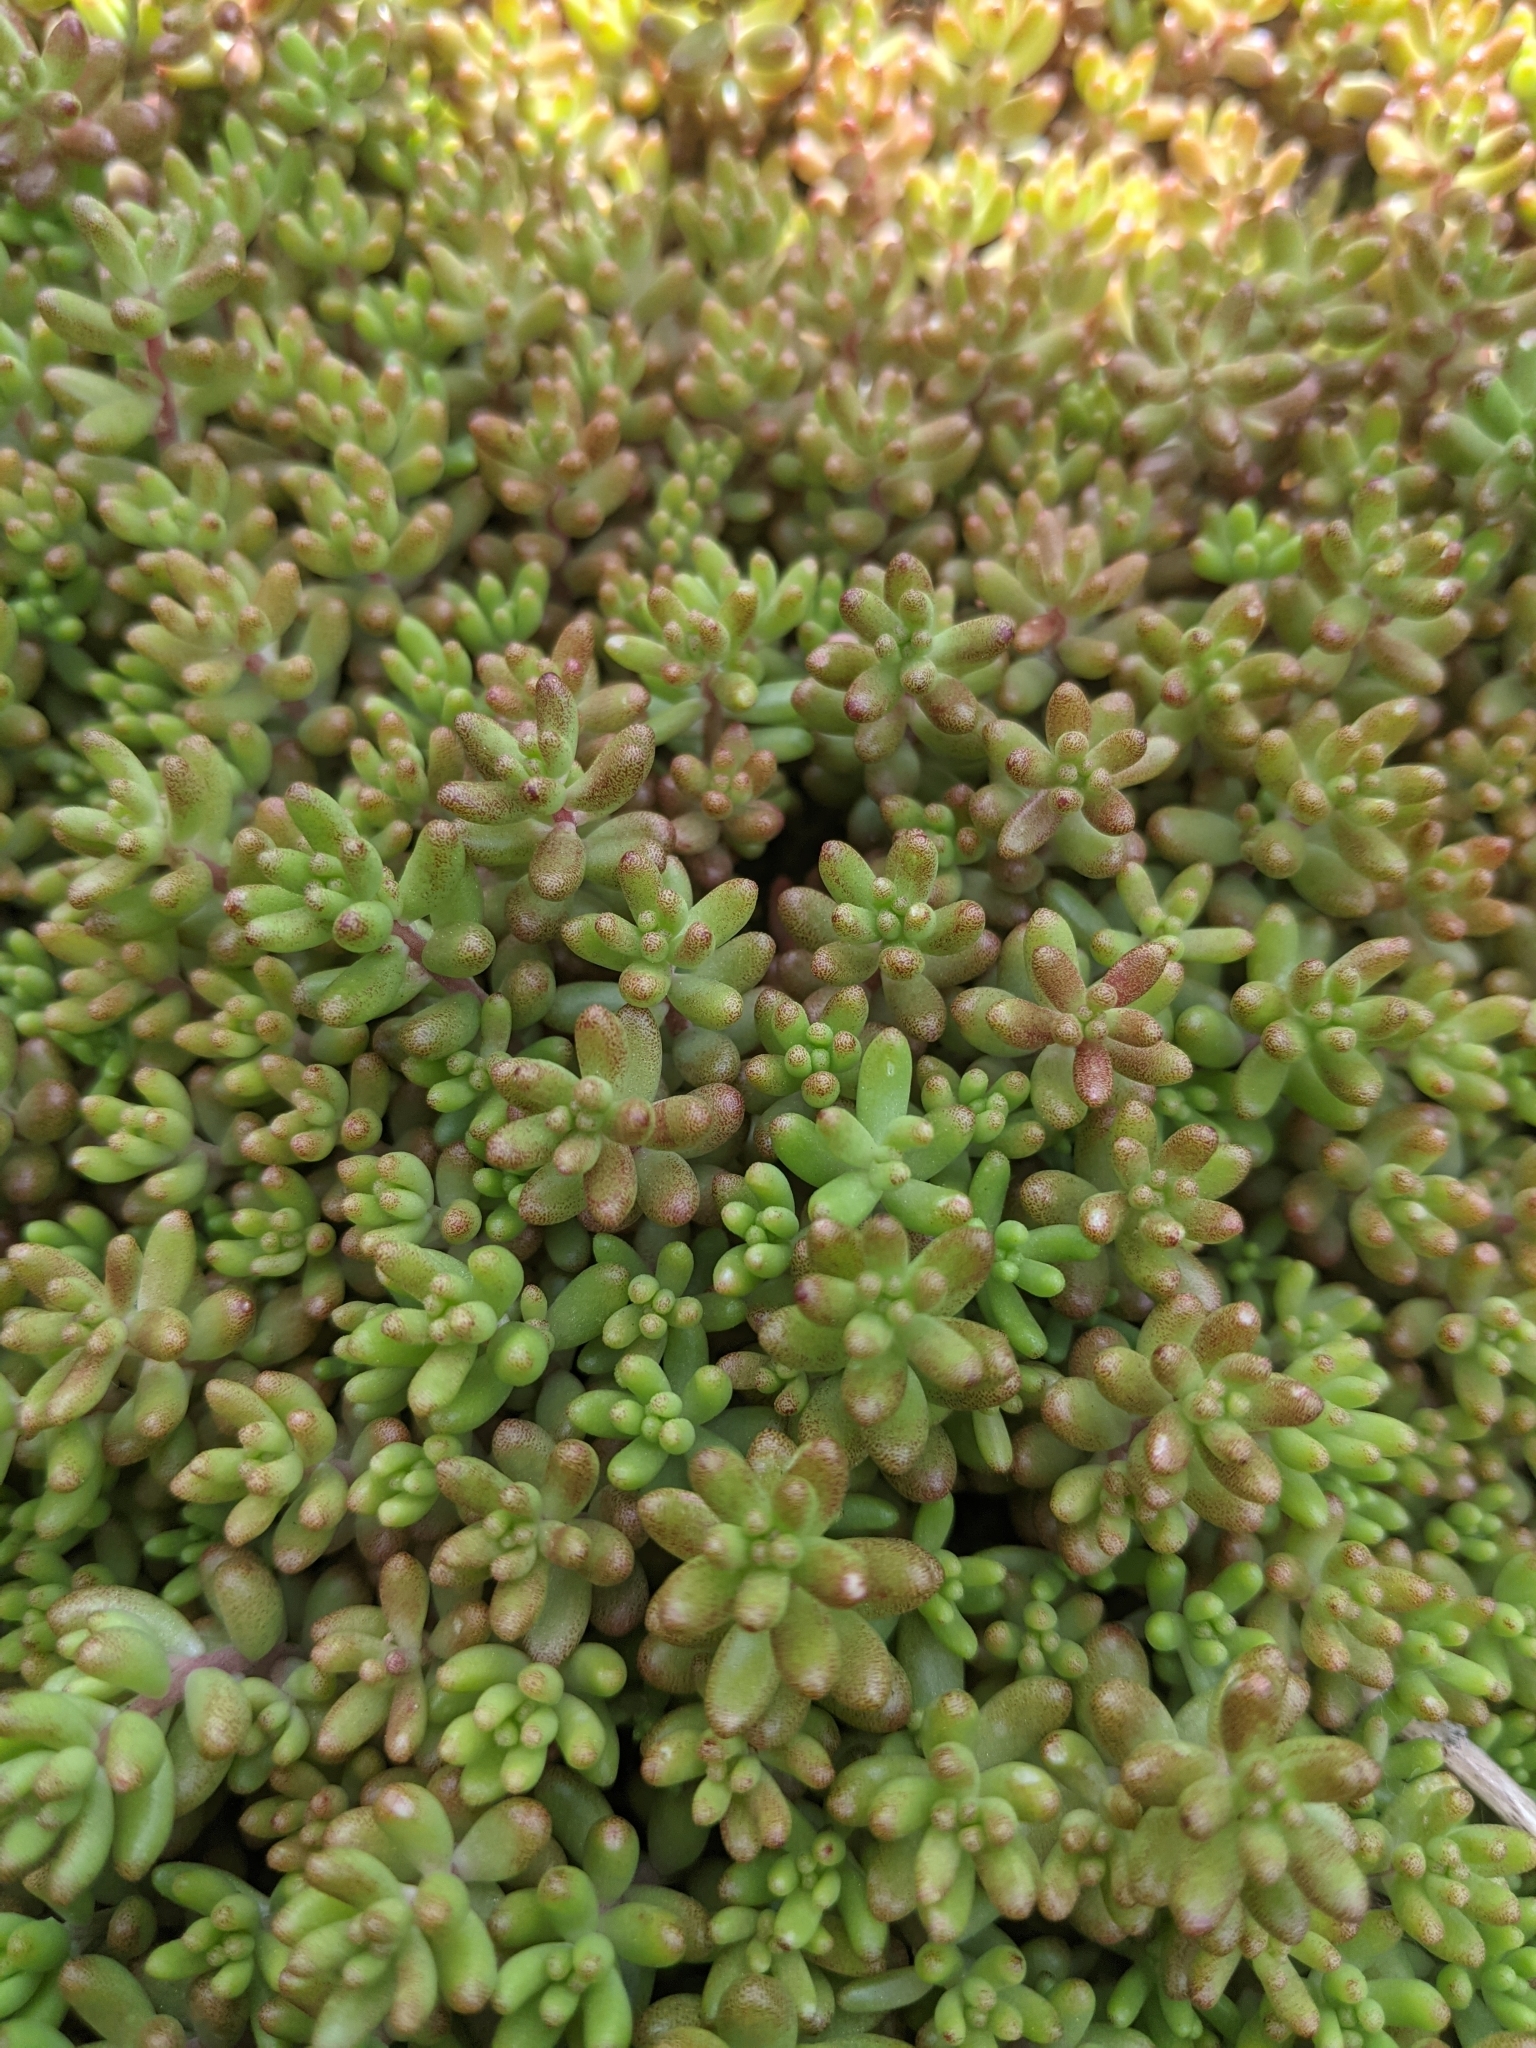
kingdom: Plantae
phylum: Tracheophyta
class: Magnoliopsida
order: Saxifragales
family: Crassulaceae
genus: Sedum
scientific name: Sedum album
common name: White stonecrop
